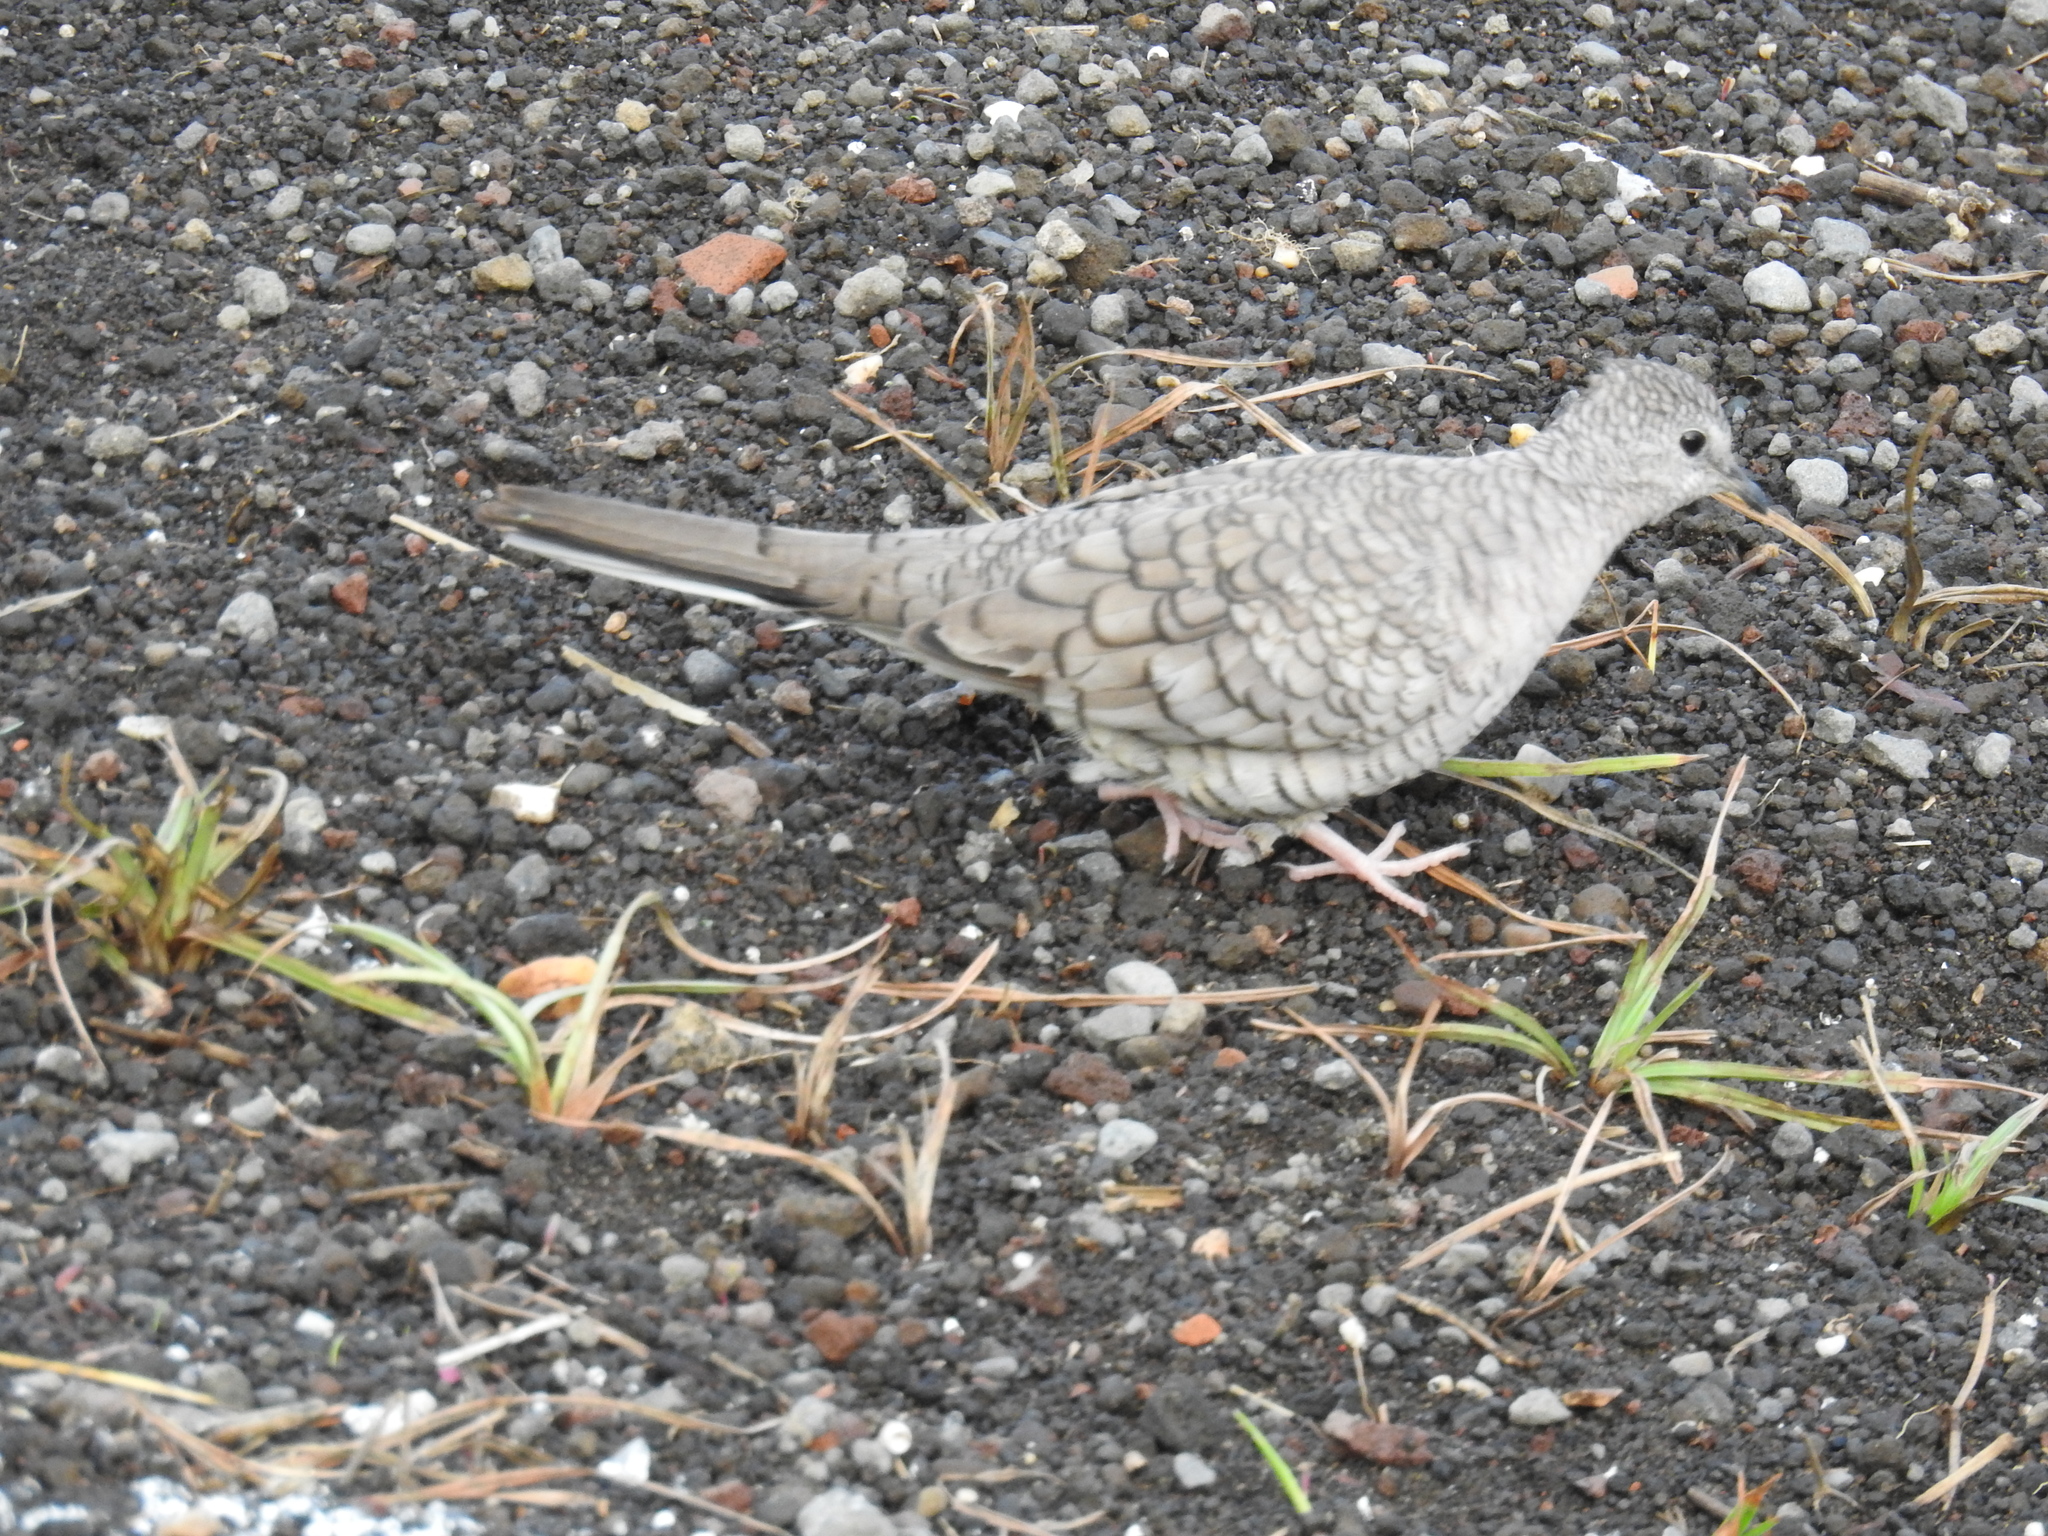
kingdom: Animalia
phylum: Chordata
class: Aves
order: Columbiformes
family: Columbidae
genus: Columbina
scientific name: Columbina inca
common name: Inca dove
